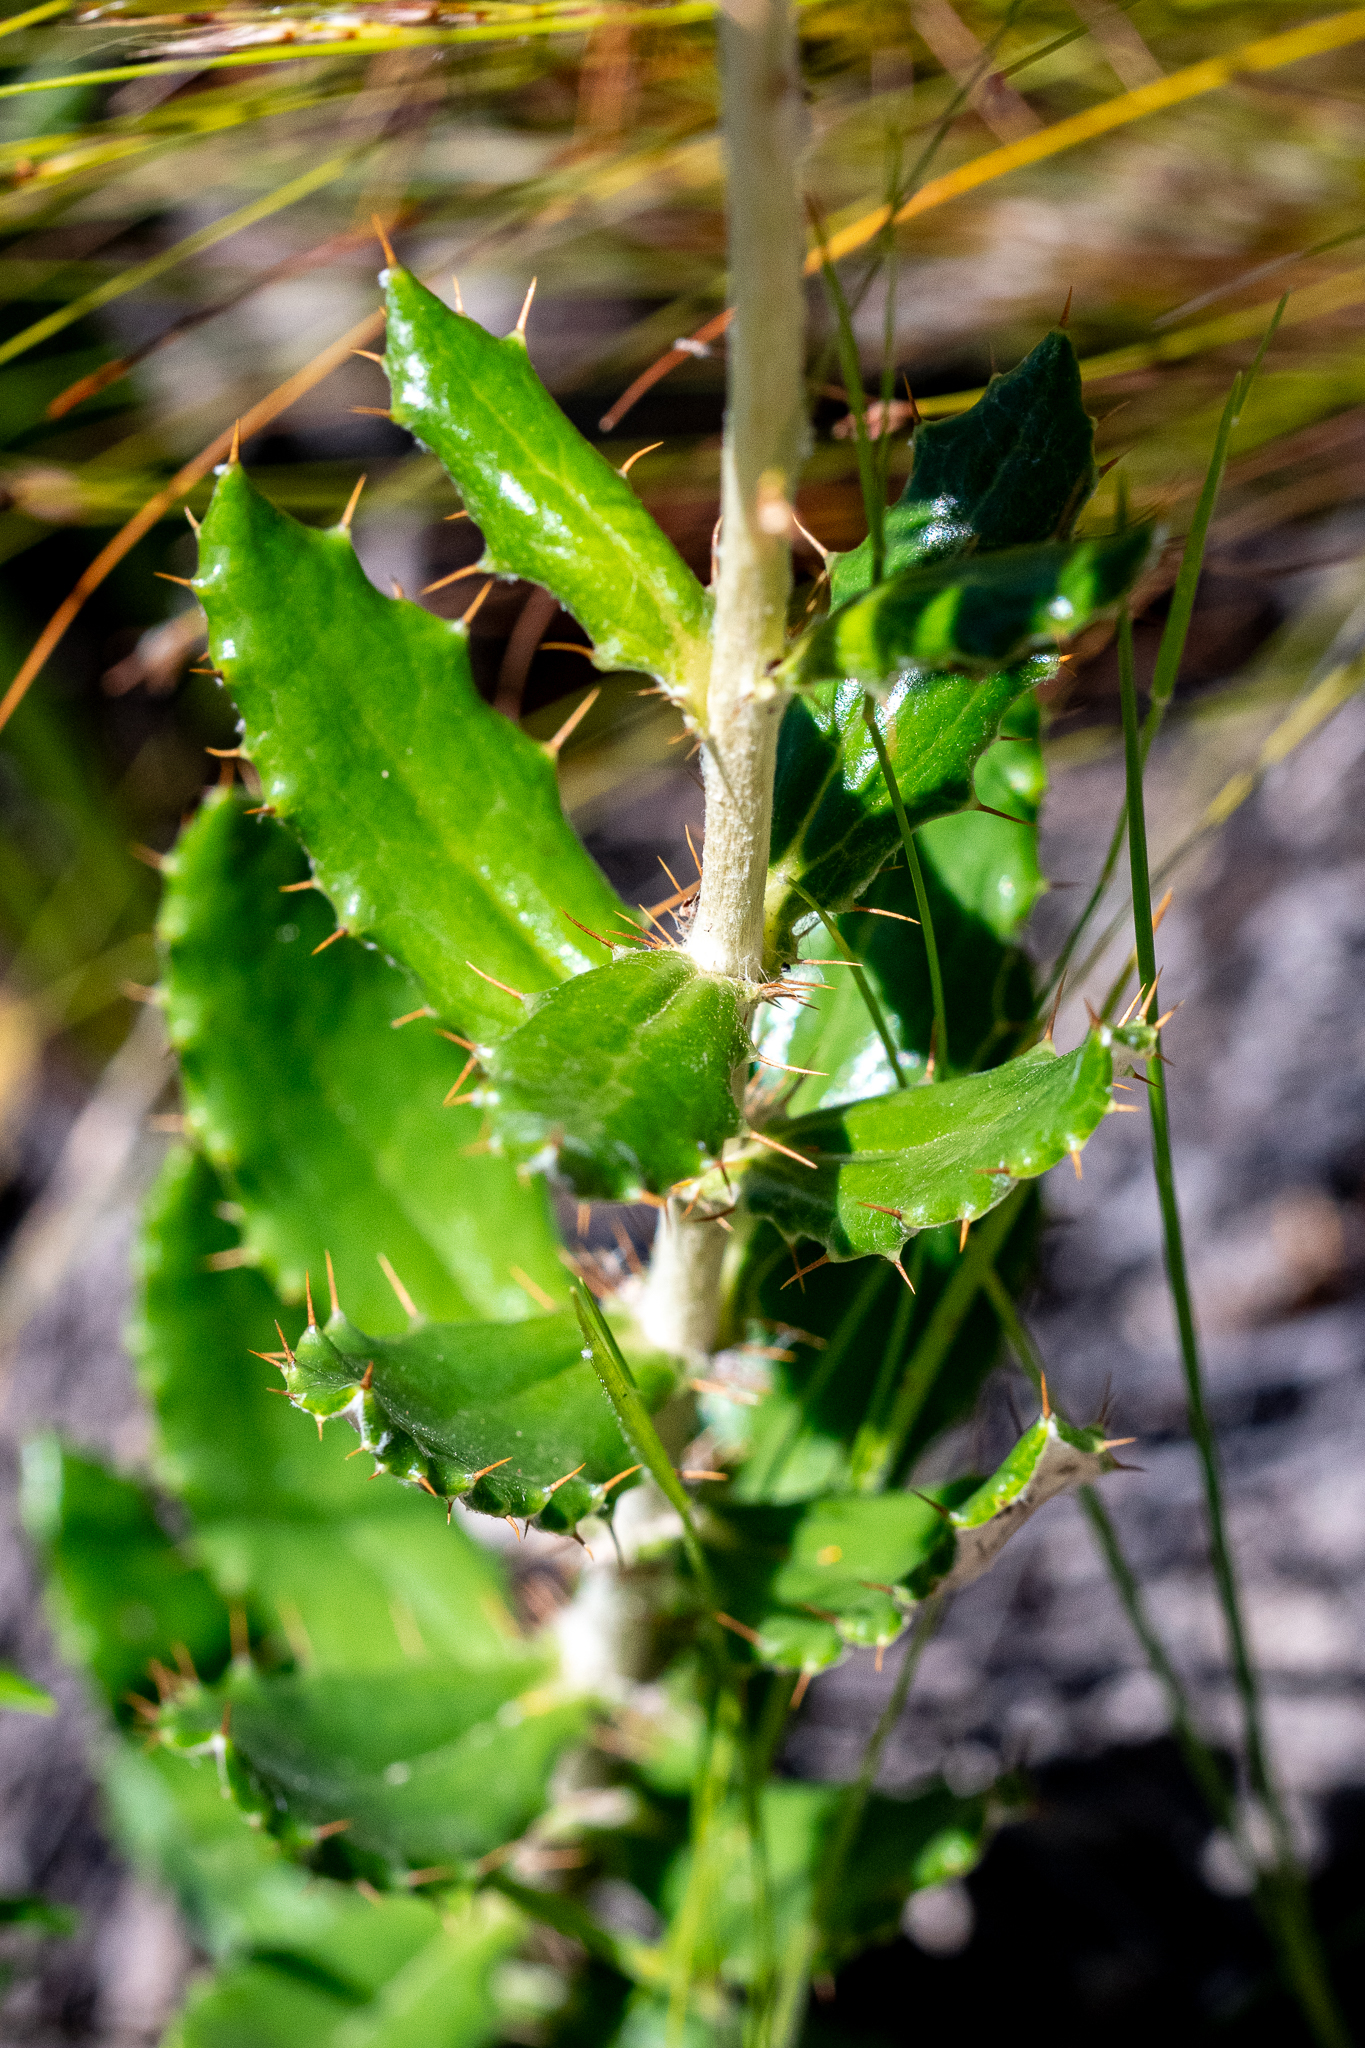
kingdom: Plantae
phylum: Tracheophyta
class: Magnoliopsida
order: Asterales
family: Asteraceae
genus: Berkheya
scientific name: Berkheya barbata
